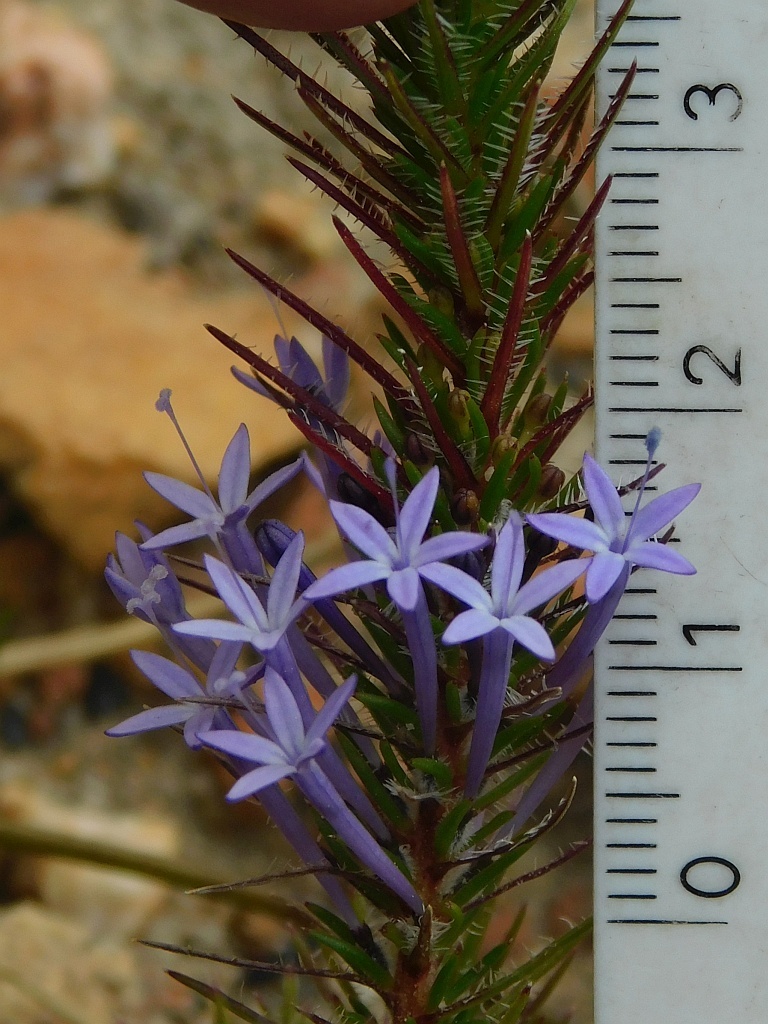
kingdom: Plantae
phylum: Tracheophyta
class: Magnoliopsida
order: Asterales
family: Campanulaceae
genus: Merciera
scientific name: Merciera eckloniana
